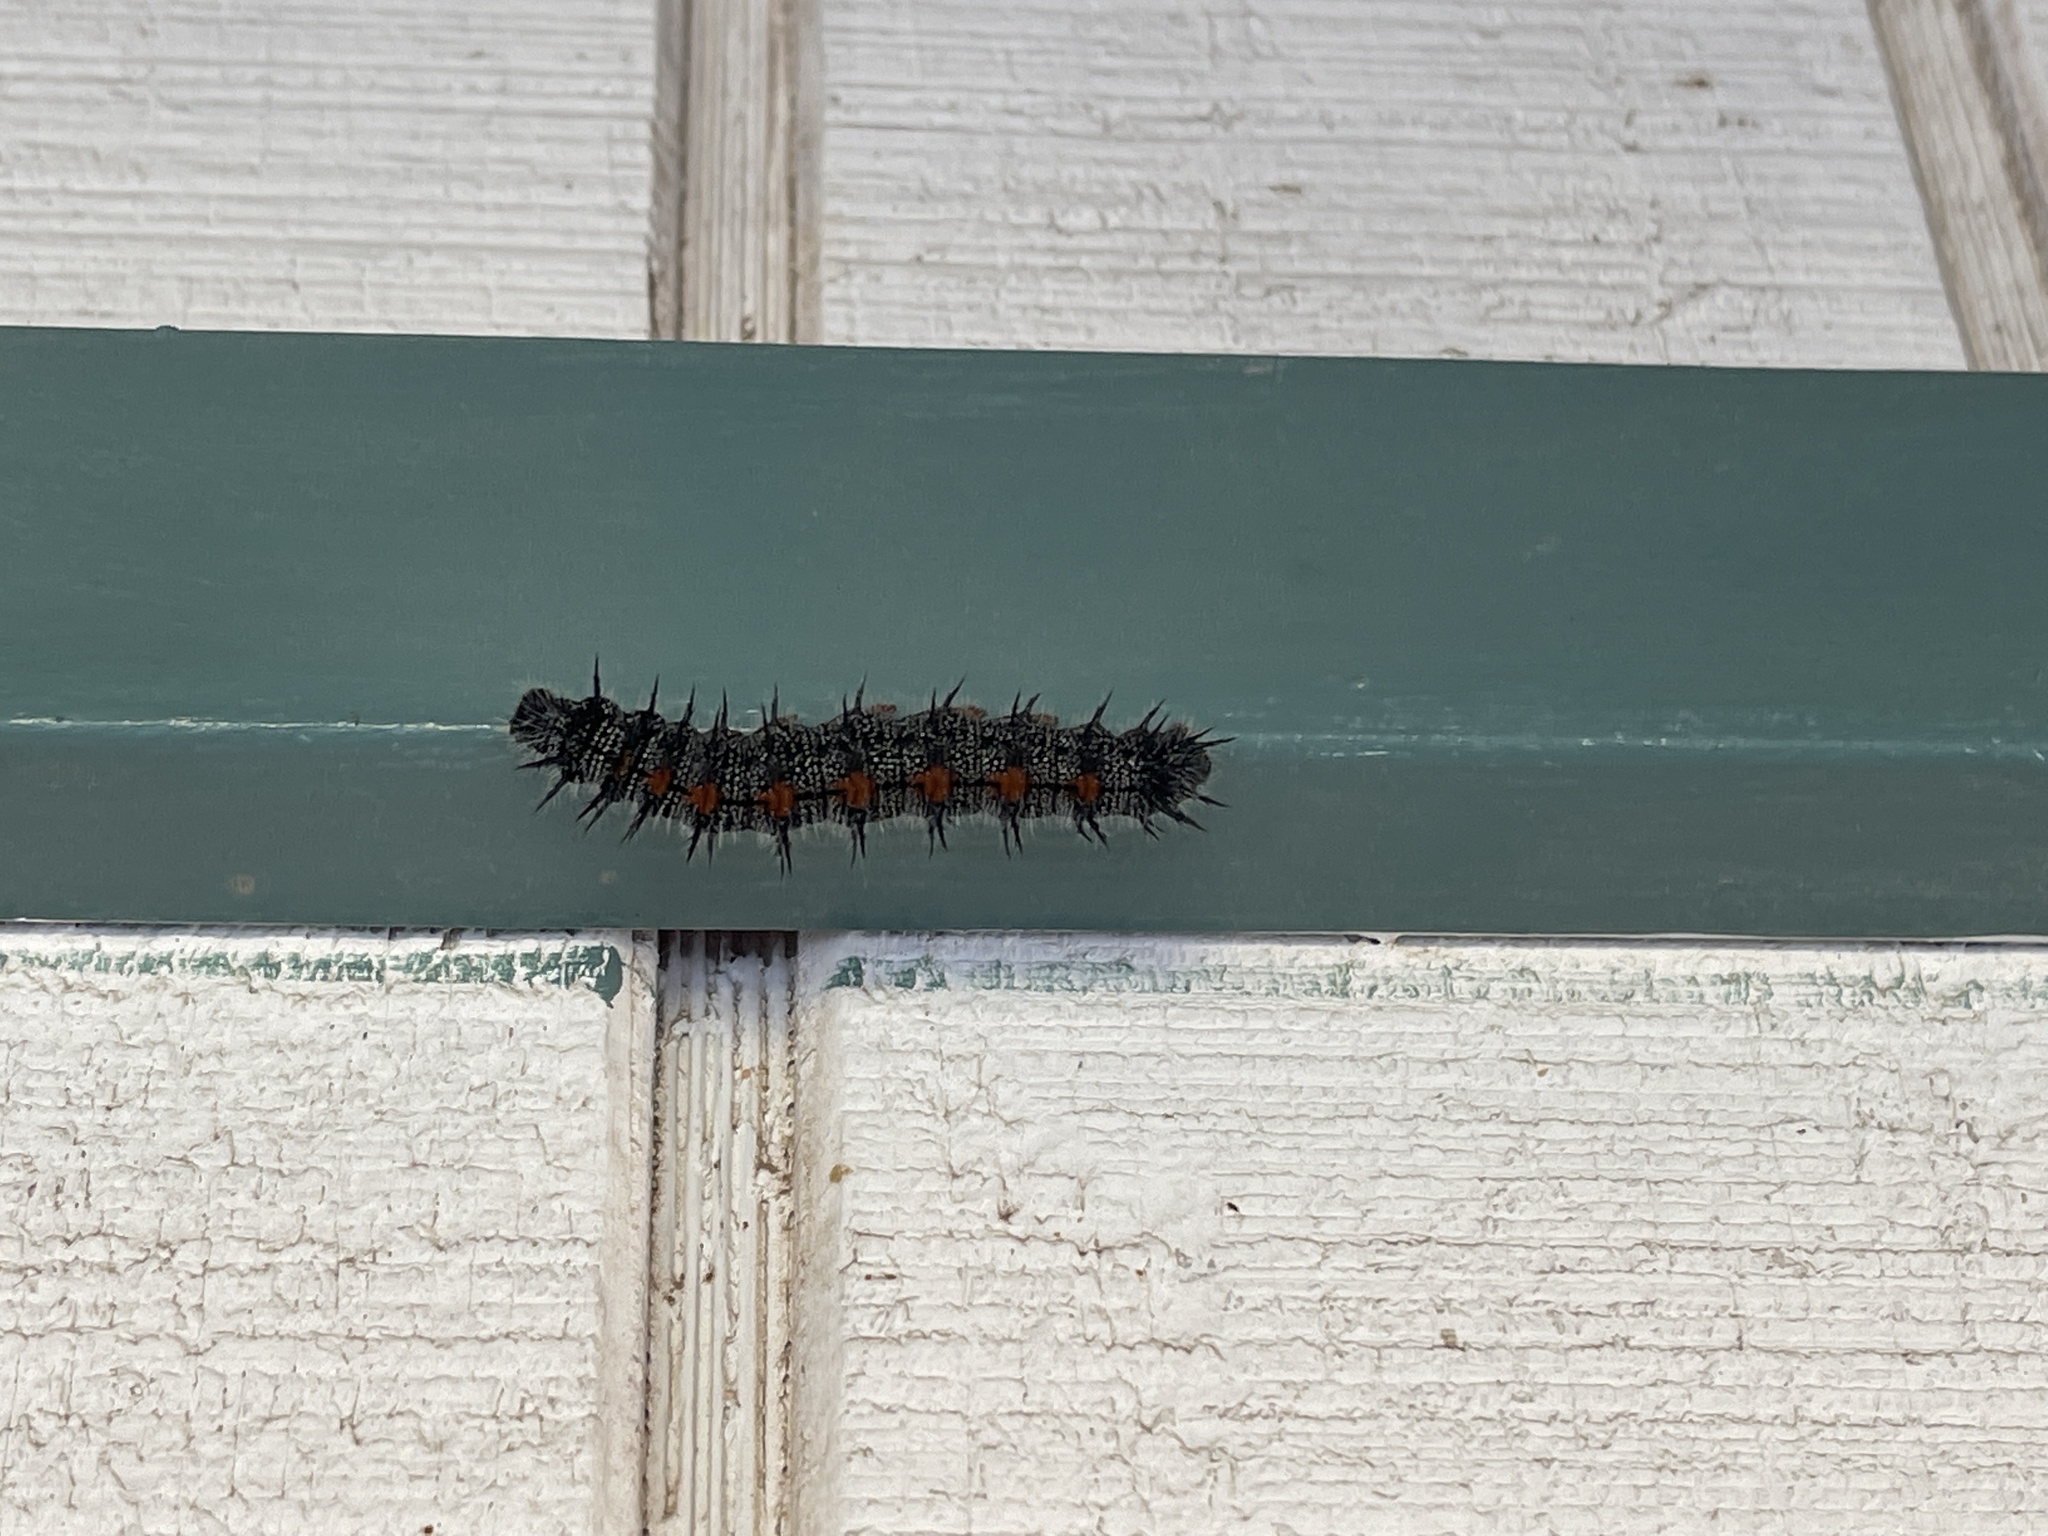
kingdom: Animalia
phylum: Arthropoda
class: Insecta
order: Lepidoptera
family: Nymphalidae
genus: Nymphalis
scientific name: Nymphalis antiopa
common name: Camberwell beauty
